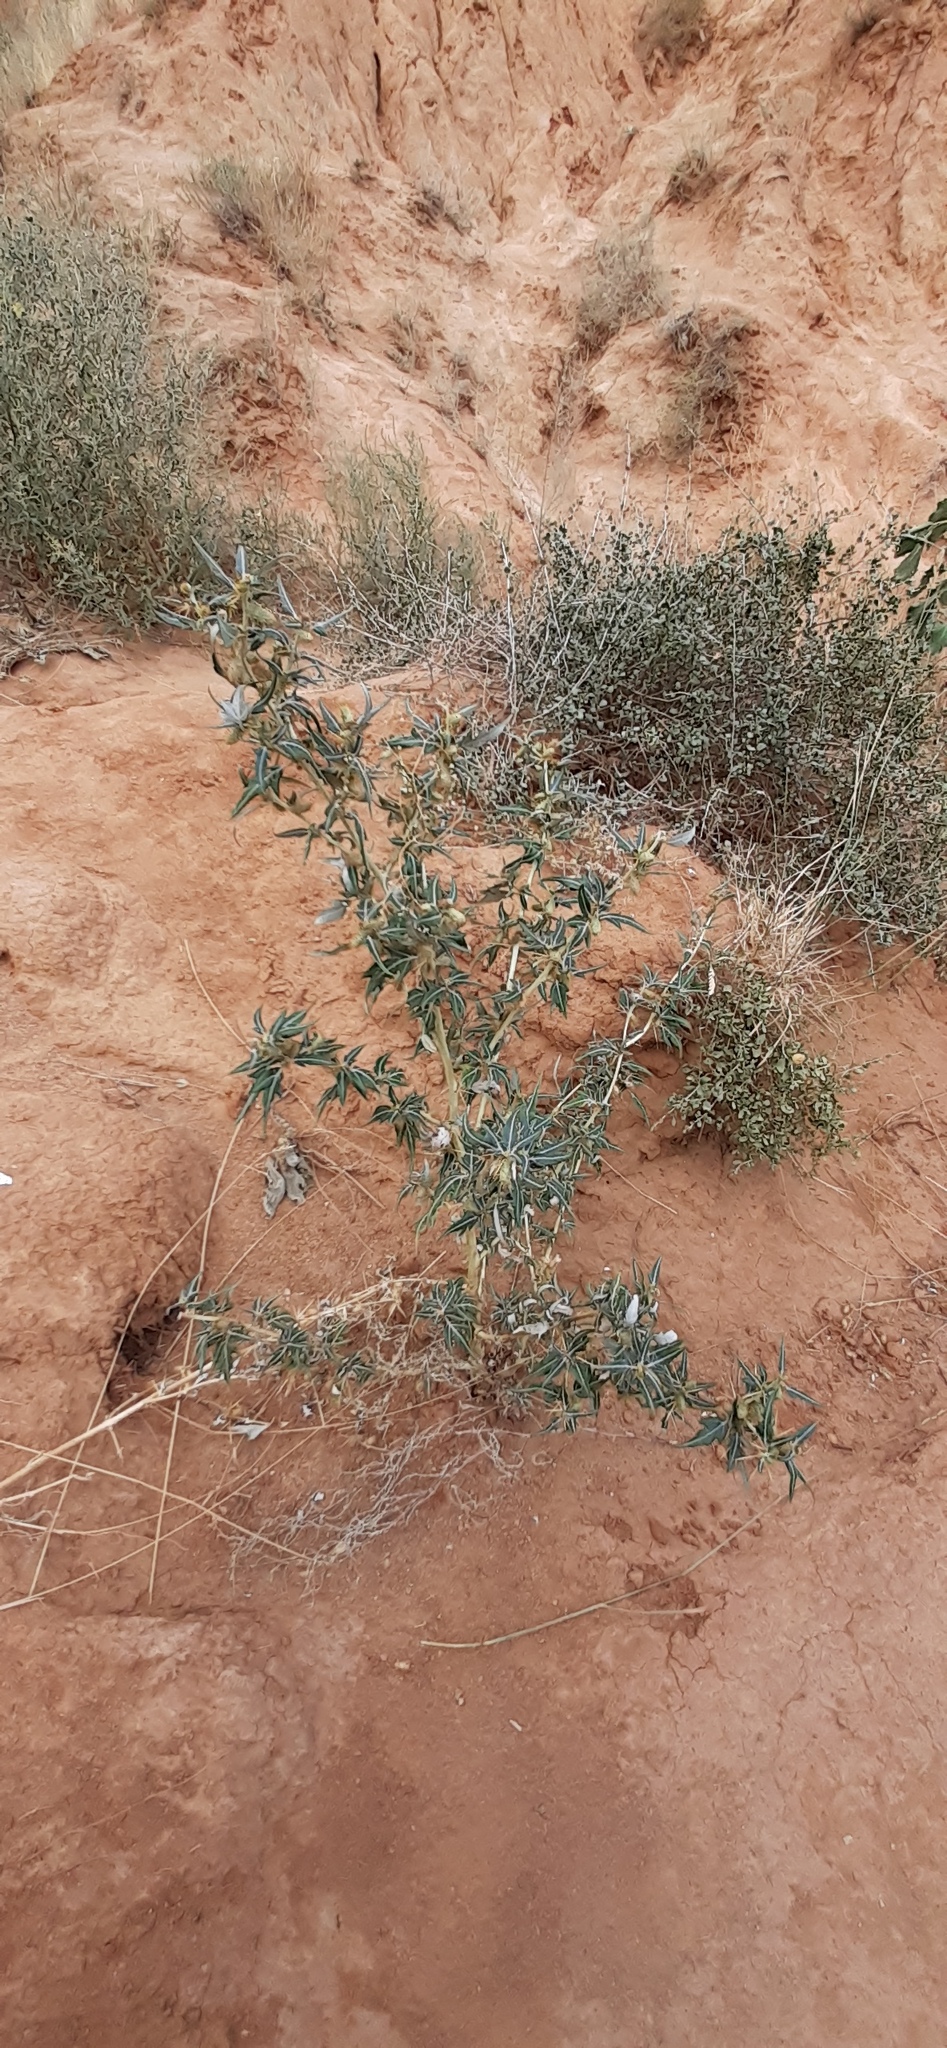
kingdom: Plantae
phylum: Tracheophyta
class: Magnoliopsida
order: Asterales
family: Asteraceae
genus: Xanthium
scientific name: Xanthium spinosum
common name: Spiny cocklebur
